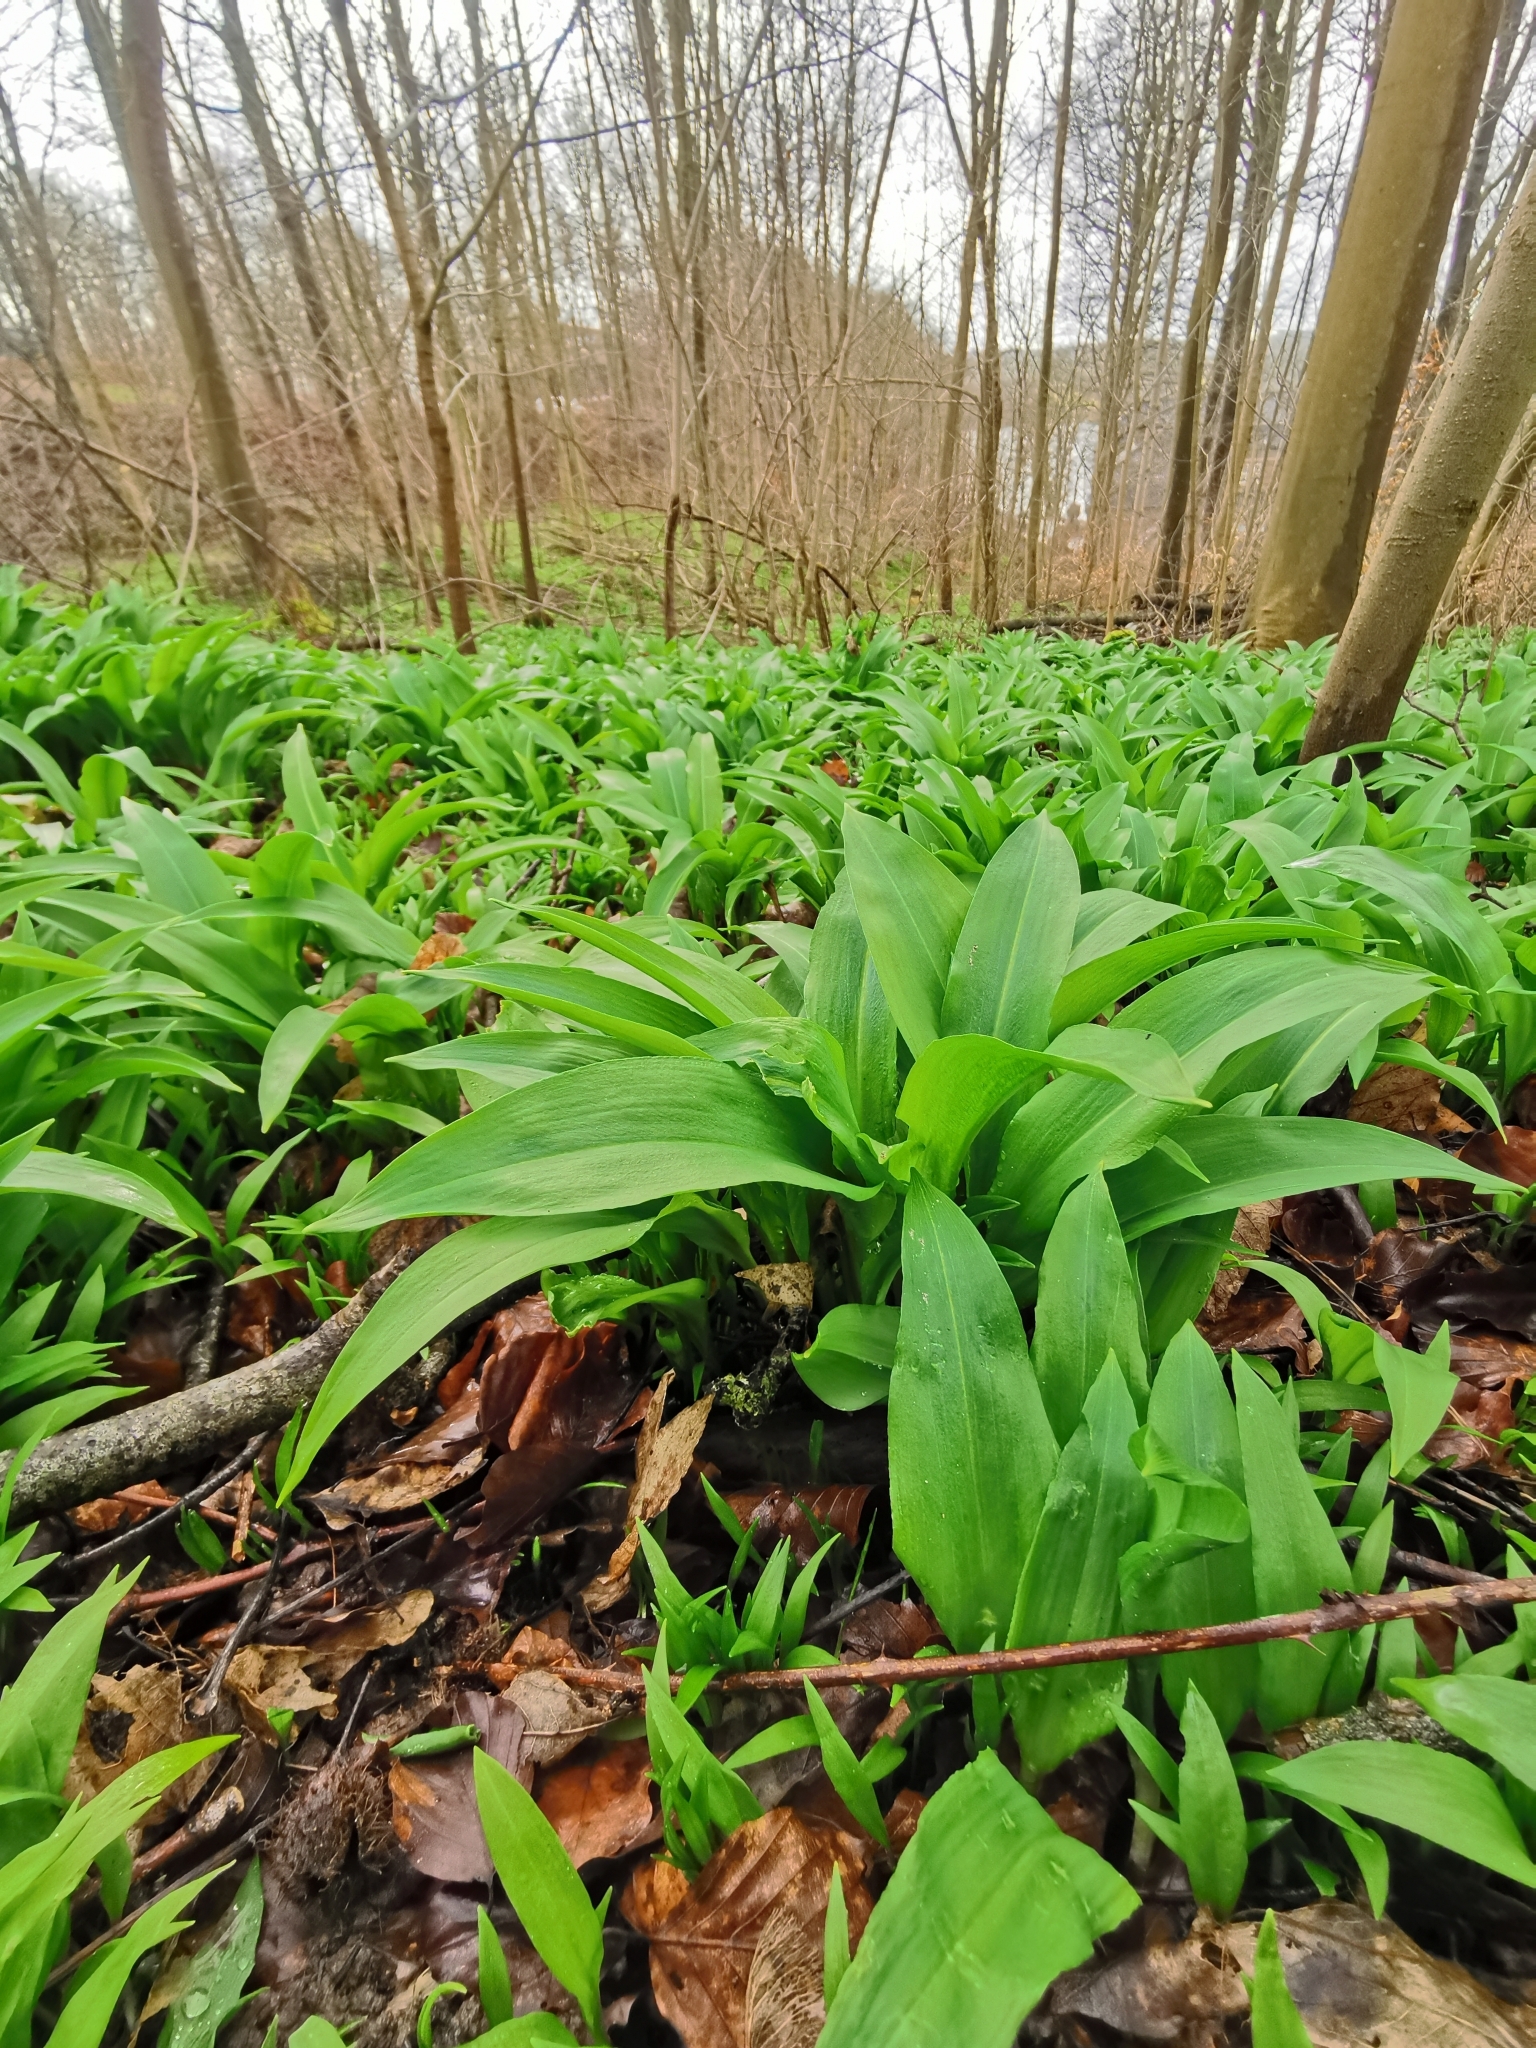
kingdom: Plantae
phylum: Tracheophyta
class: Liliopsida
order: Asparagales
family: Amaryllidaceae
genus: Allium
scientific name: Allium ursinum
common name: Ramsons
